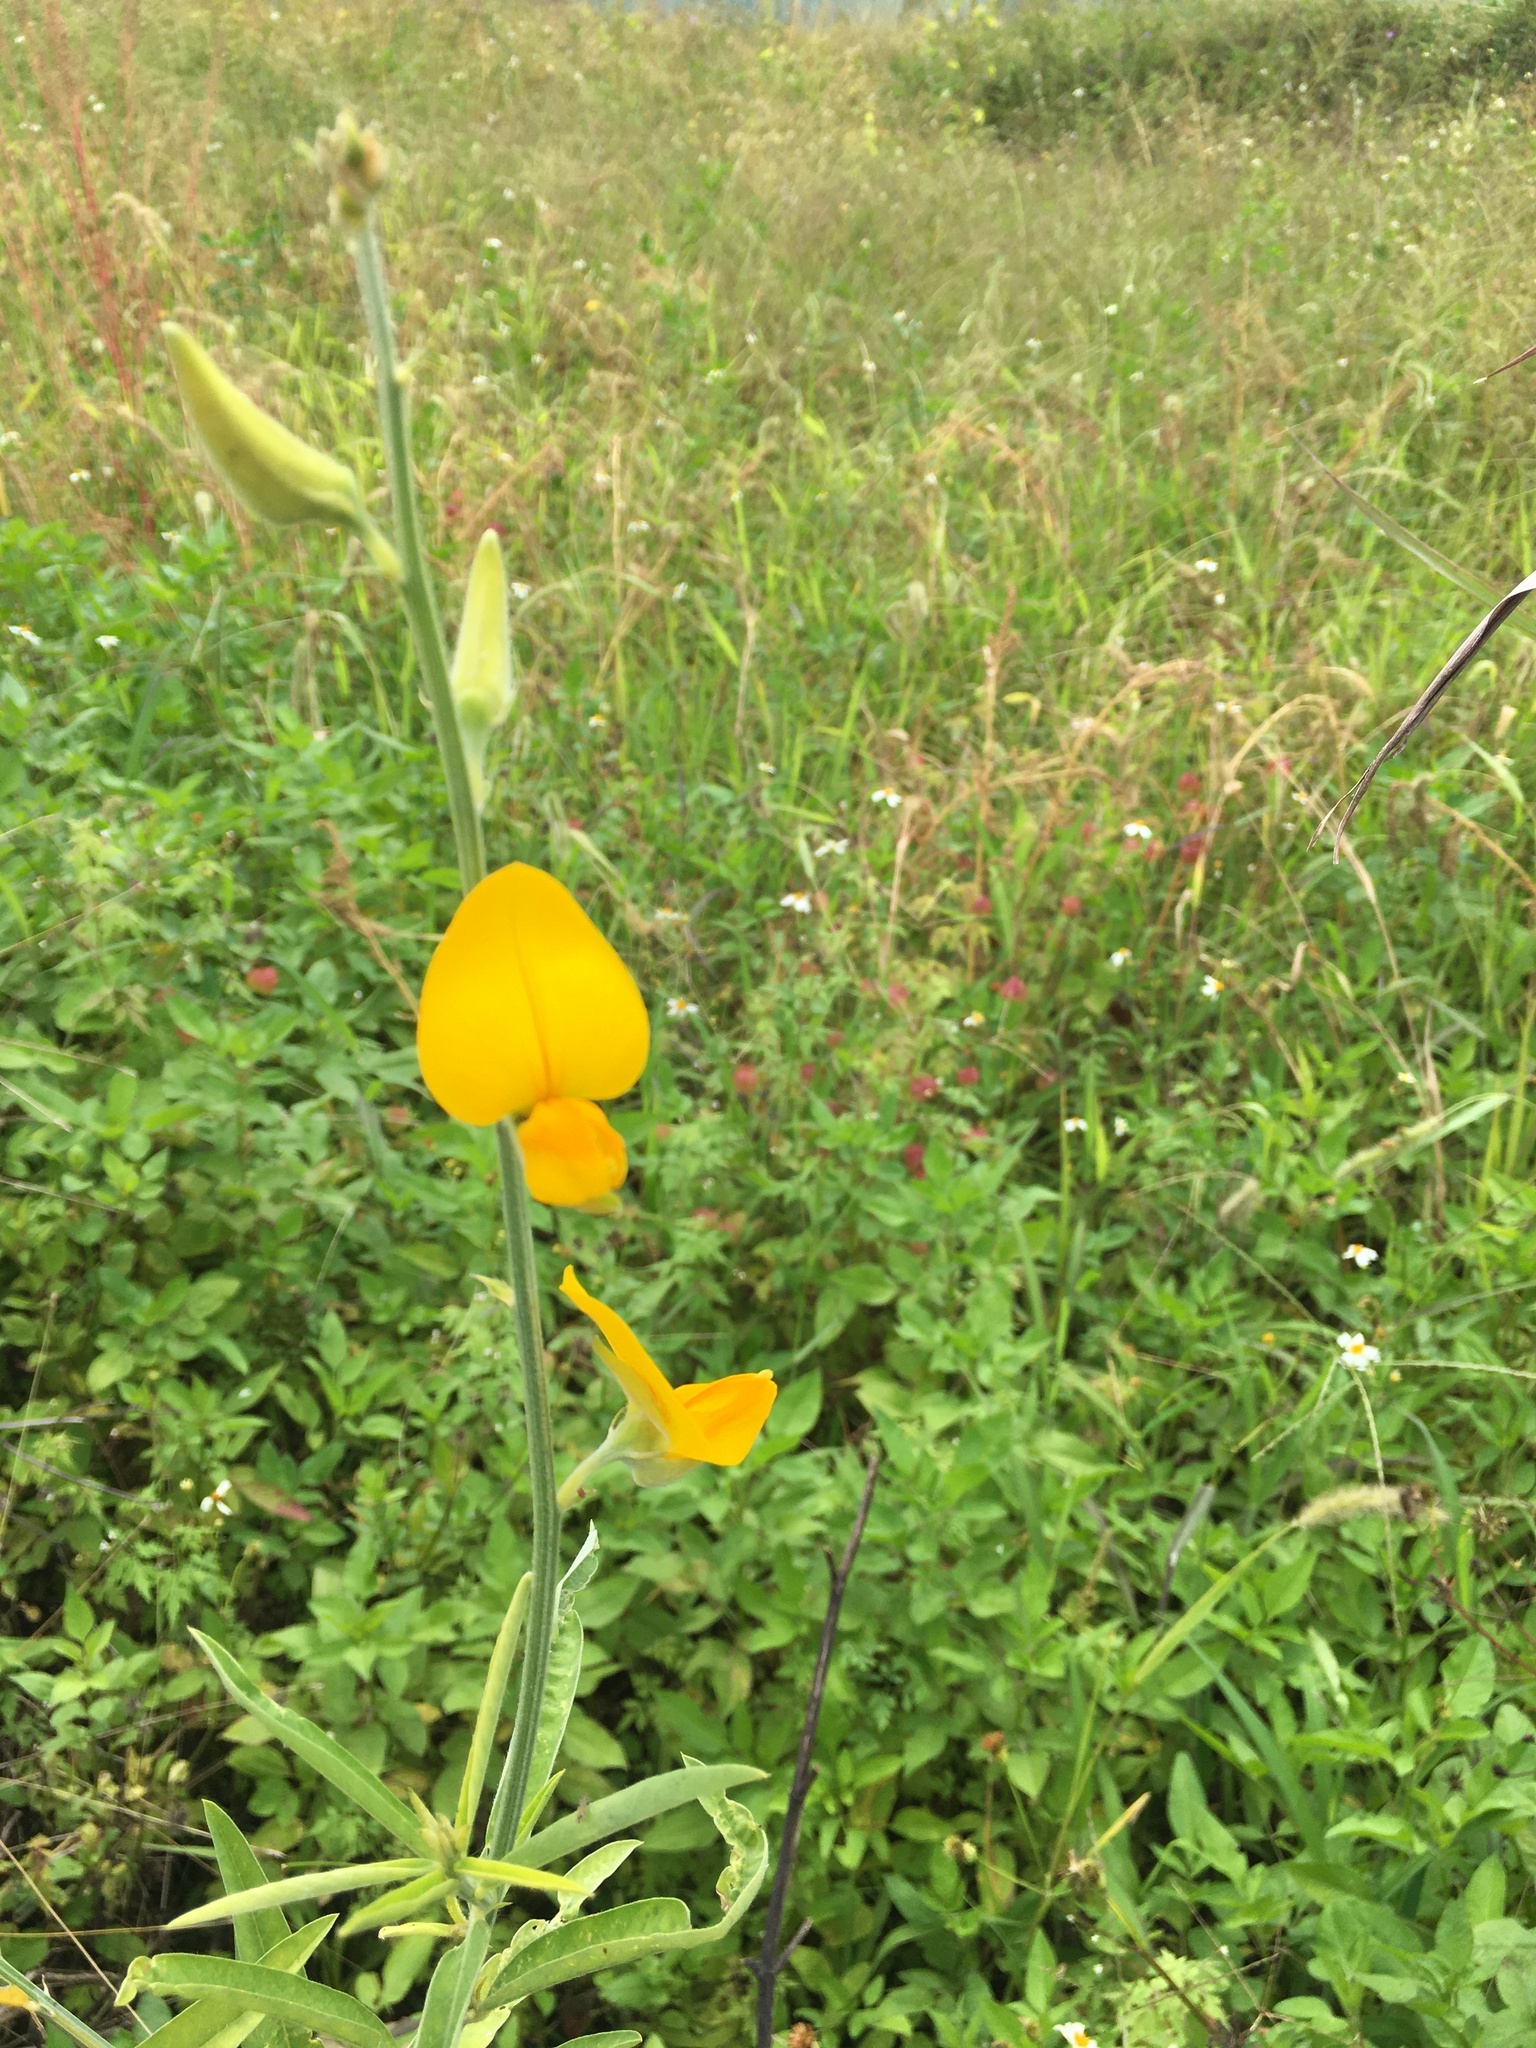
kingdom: Plantae
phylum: Tracheophyta
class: Magnoliopsida
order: Fabales
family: Fabaceae
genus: Crotalaria
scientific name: Crotalaria juncea
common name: Sunn hemp
